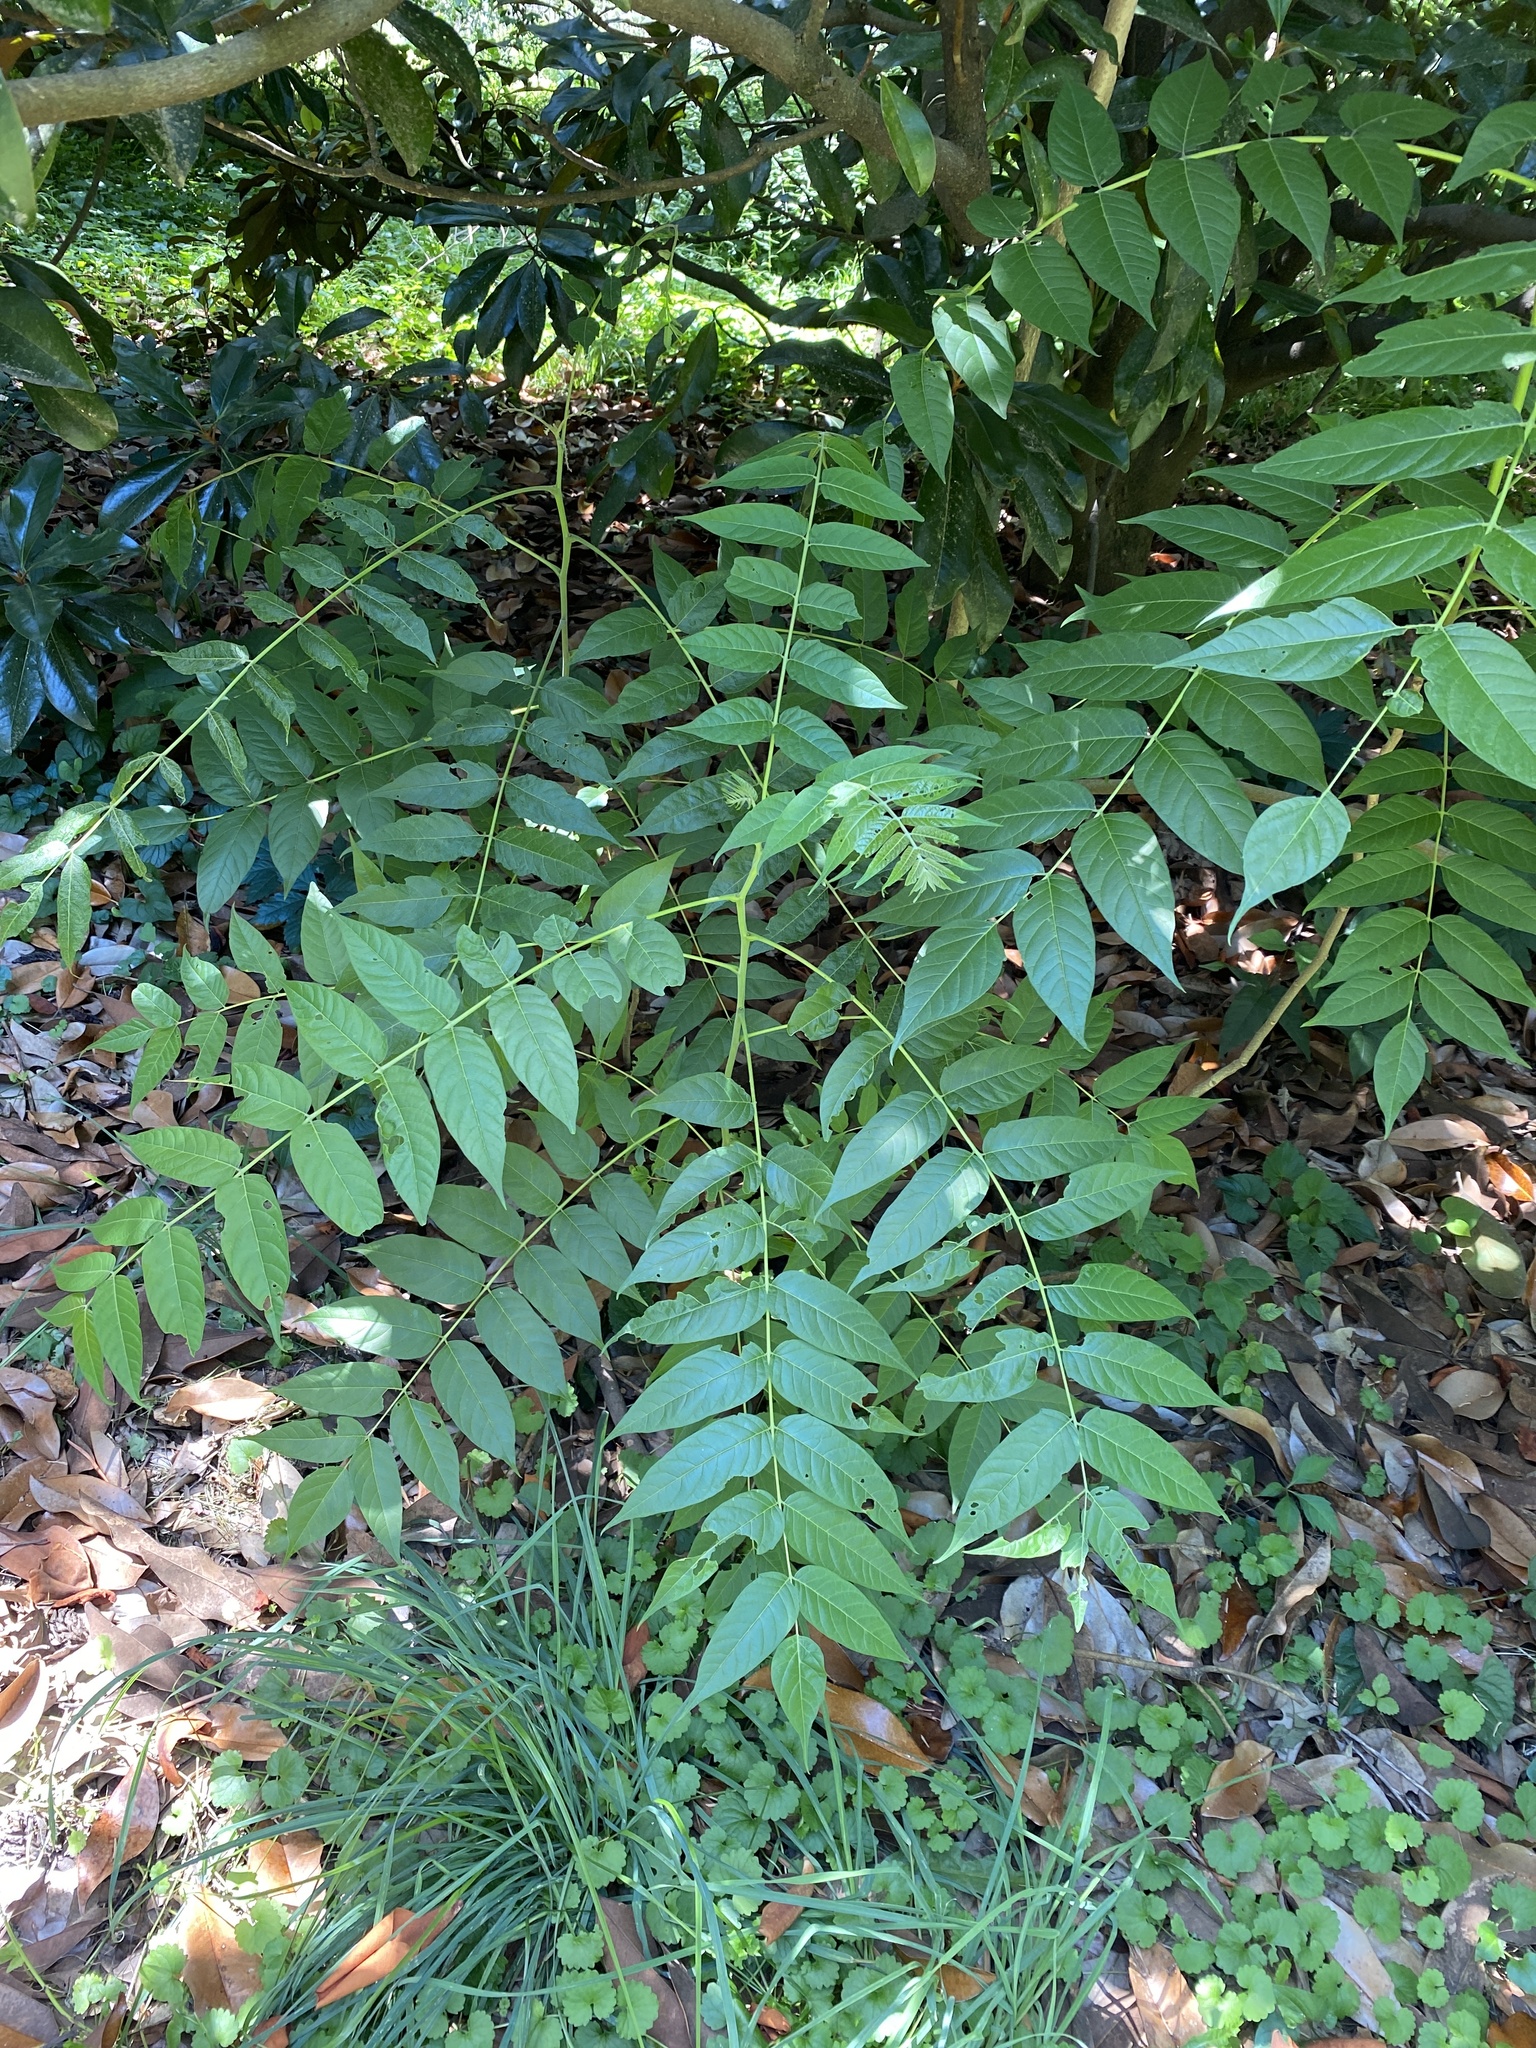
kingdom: Plantae
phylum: Tracheophyta
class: Magnoliopsida
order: Sapindales
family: Simaroubaceae
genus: Ailanthus
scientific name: Ailanthus altissima
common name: Tree-of-heaven
